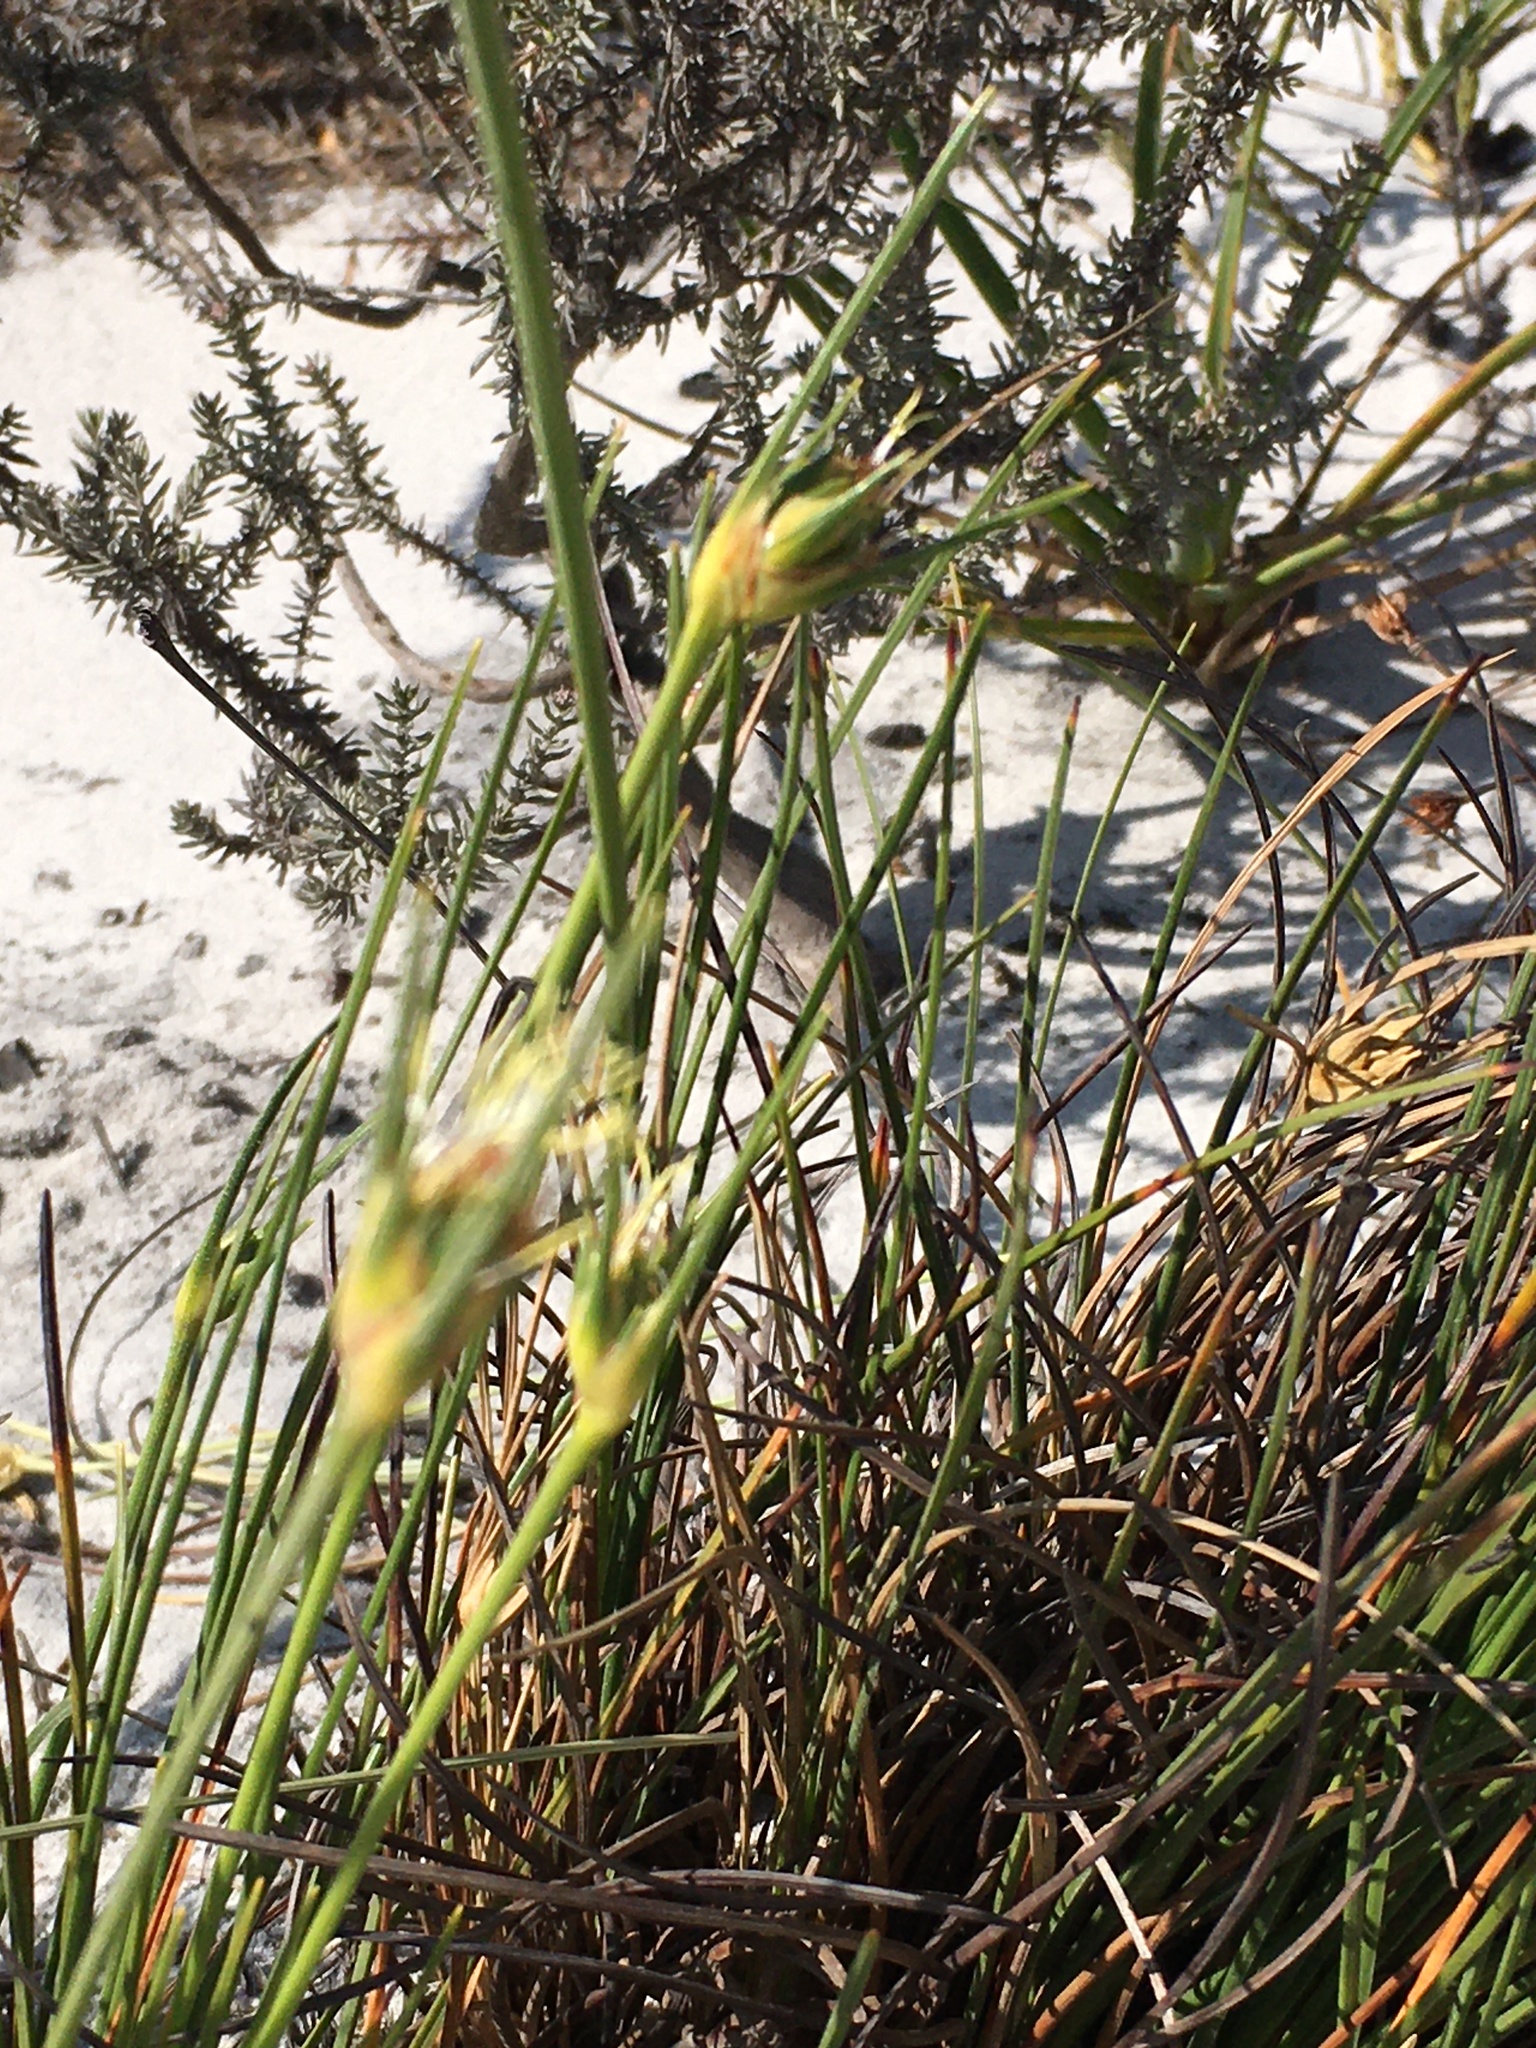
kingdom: Plantae
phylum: Tracheophyta
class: Liliopsida
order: Poales
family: Cyperaceae
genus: Ficinia
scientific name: Ficinia pallens
